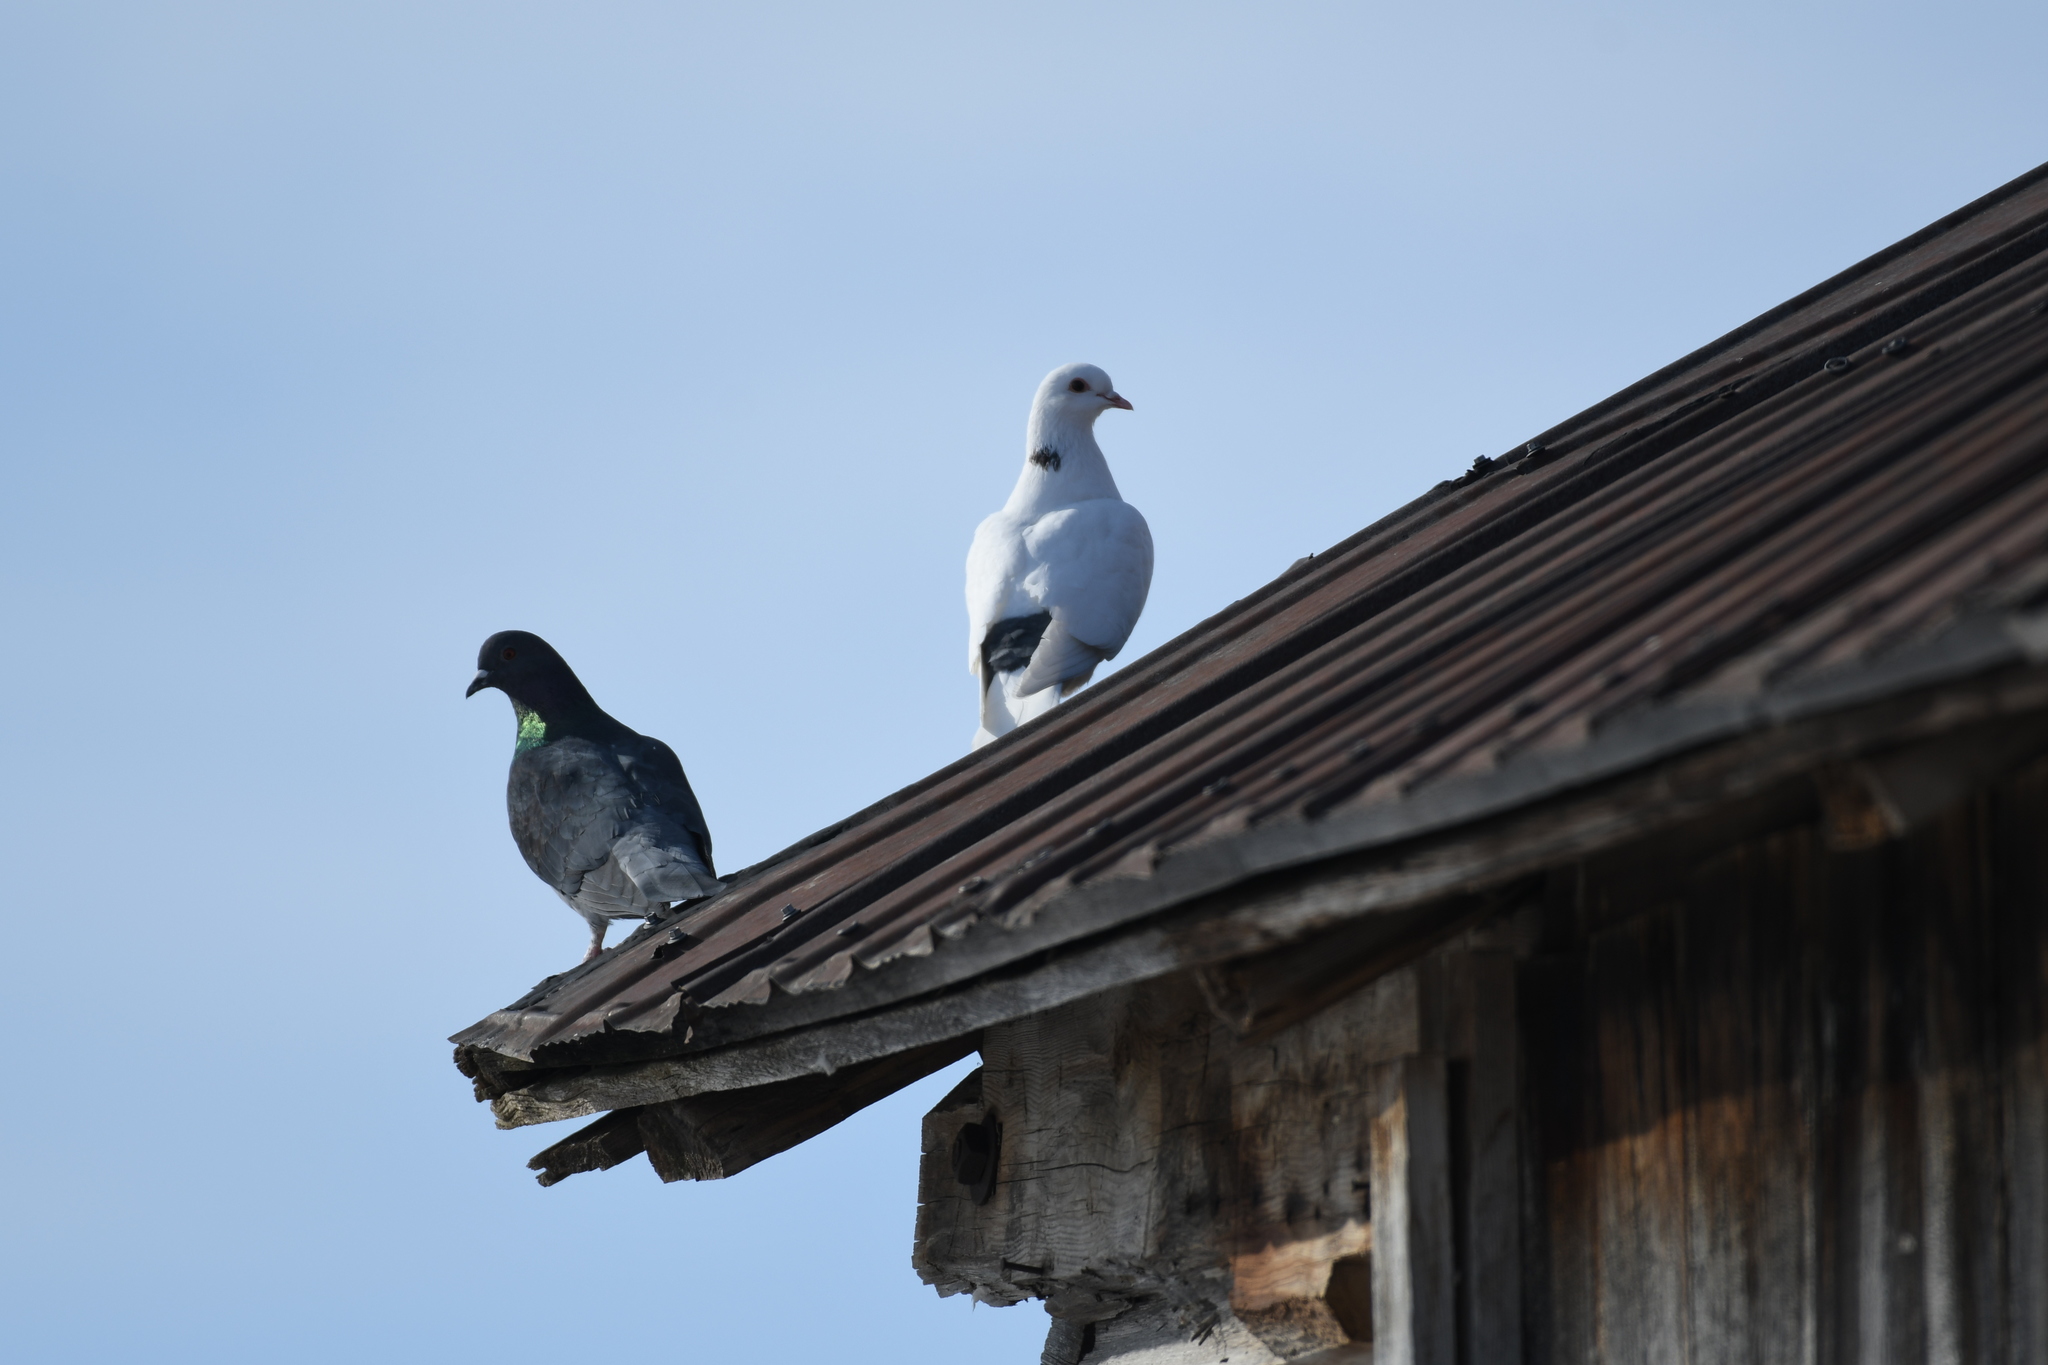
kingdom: Animalia
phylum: Chordata
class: Aves
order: Columbiformes
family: Columbidae
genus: Columba
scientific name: Columba livia
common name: Rock pigeon
